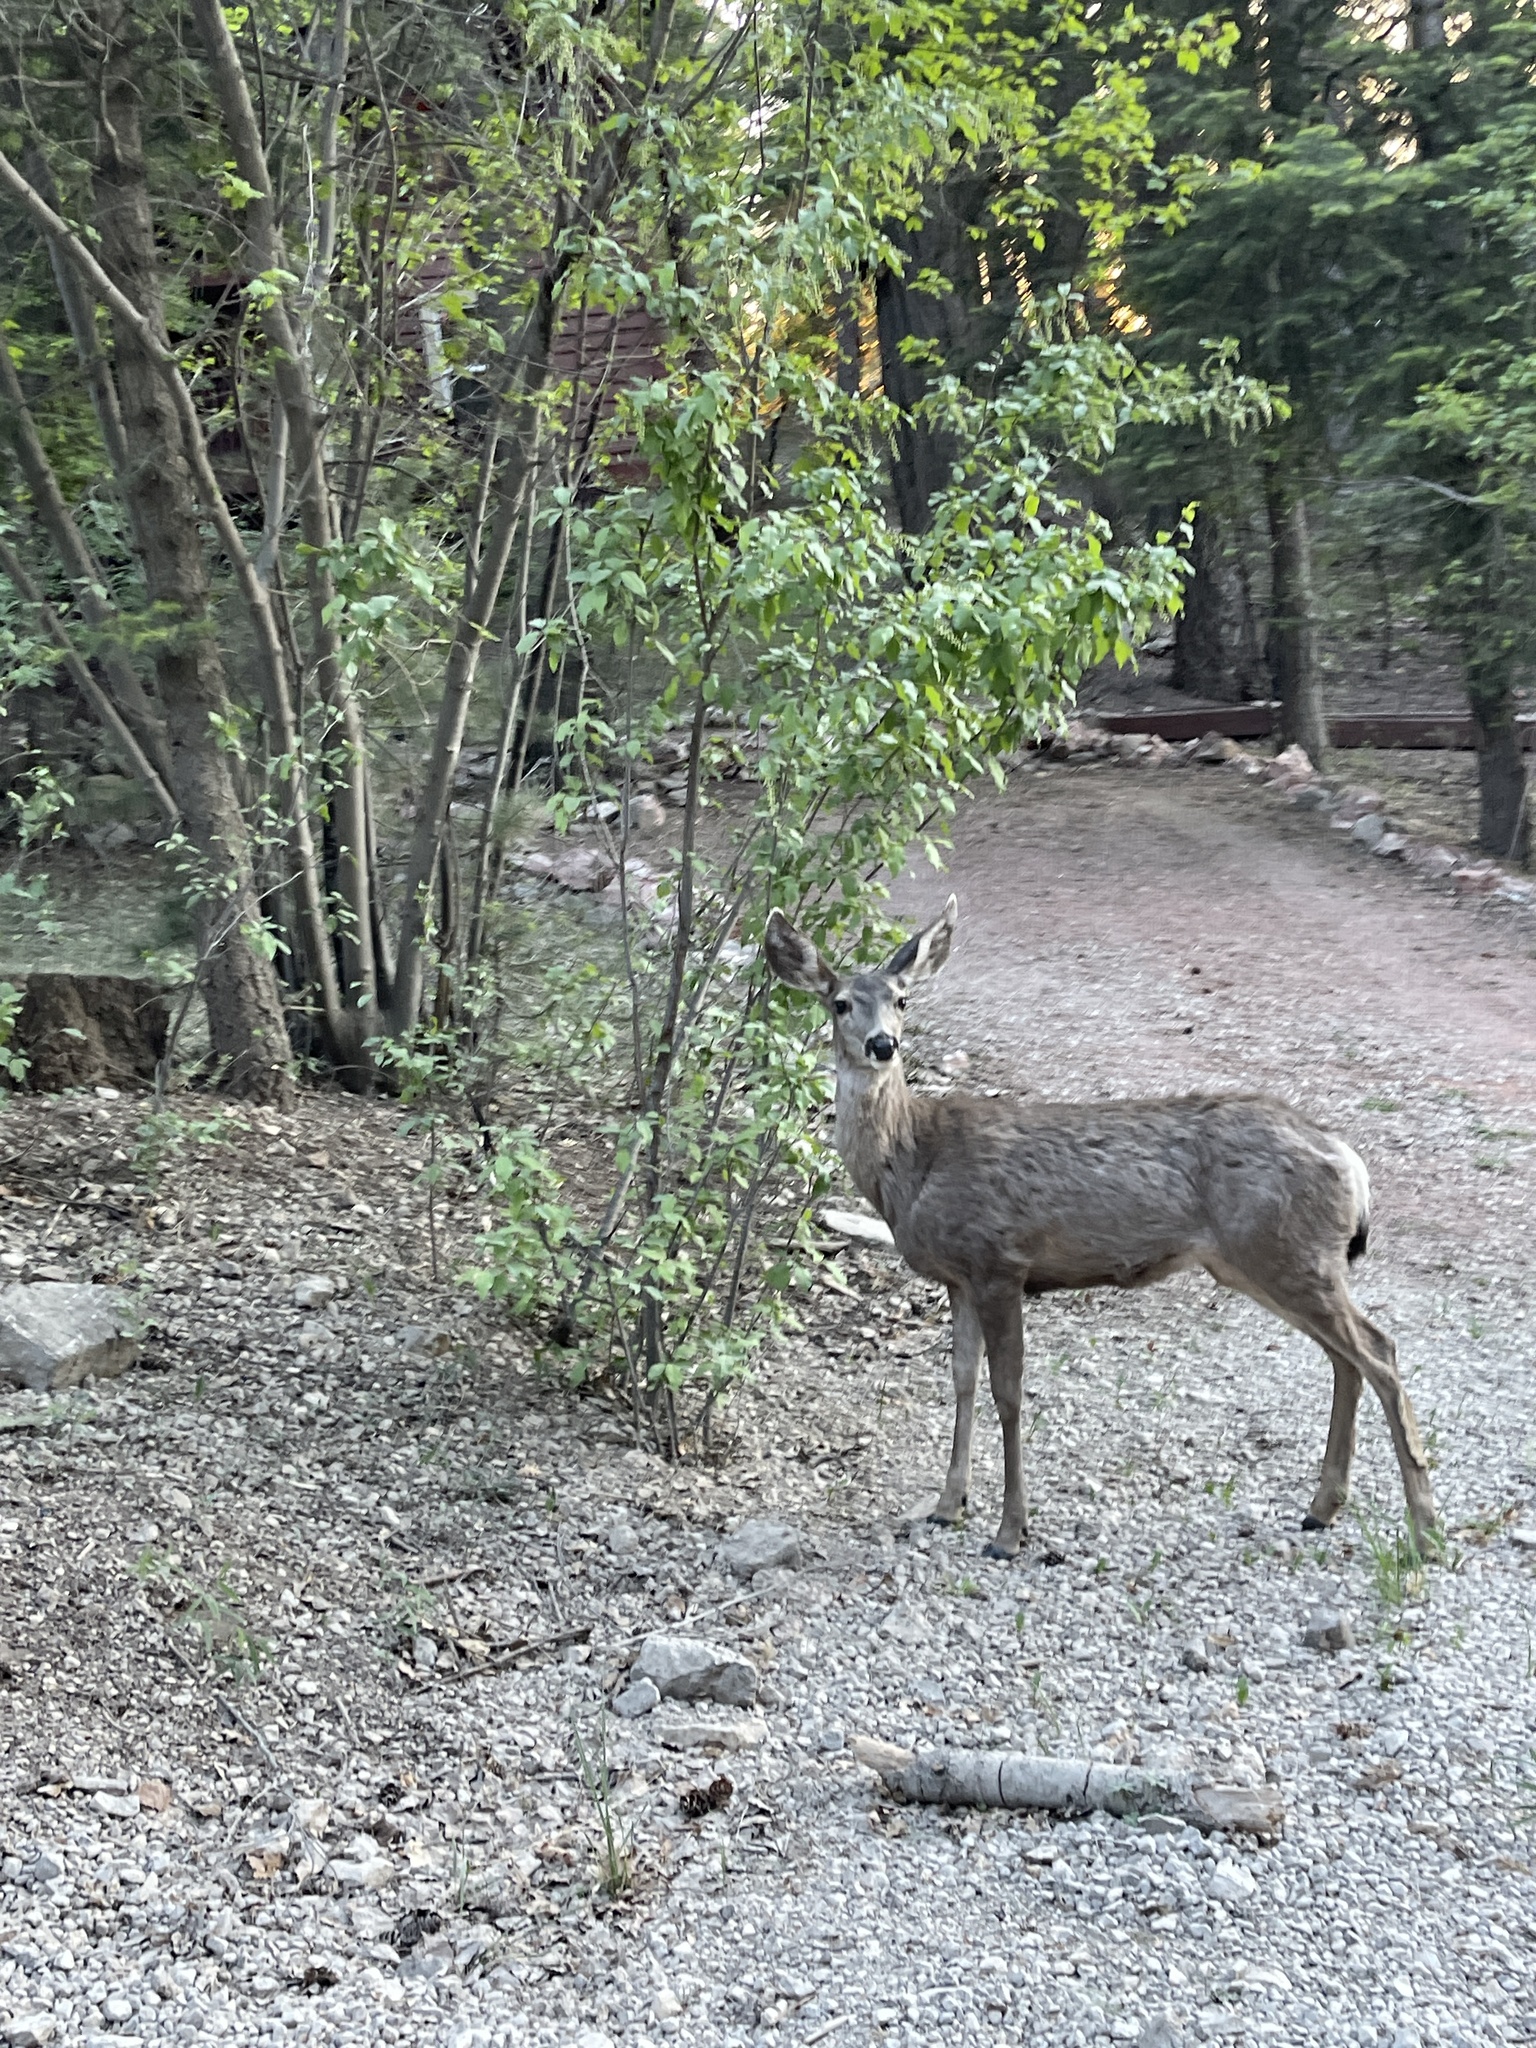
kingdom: Animalia
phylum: Chordata
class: Mammalia
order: Artiodactyla
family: Cervidae
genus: Odocoileus
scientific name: Odocoileus hemionus
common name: Mule deer
